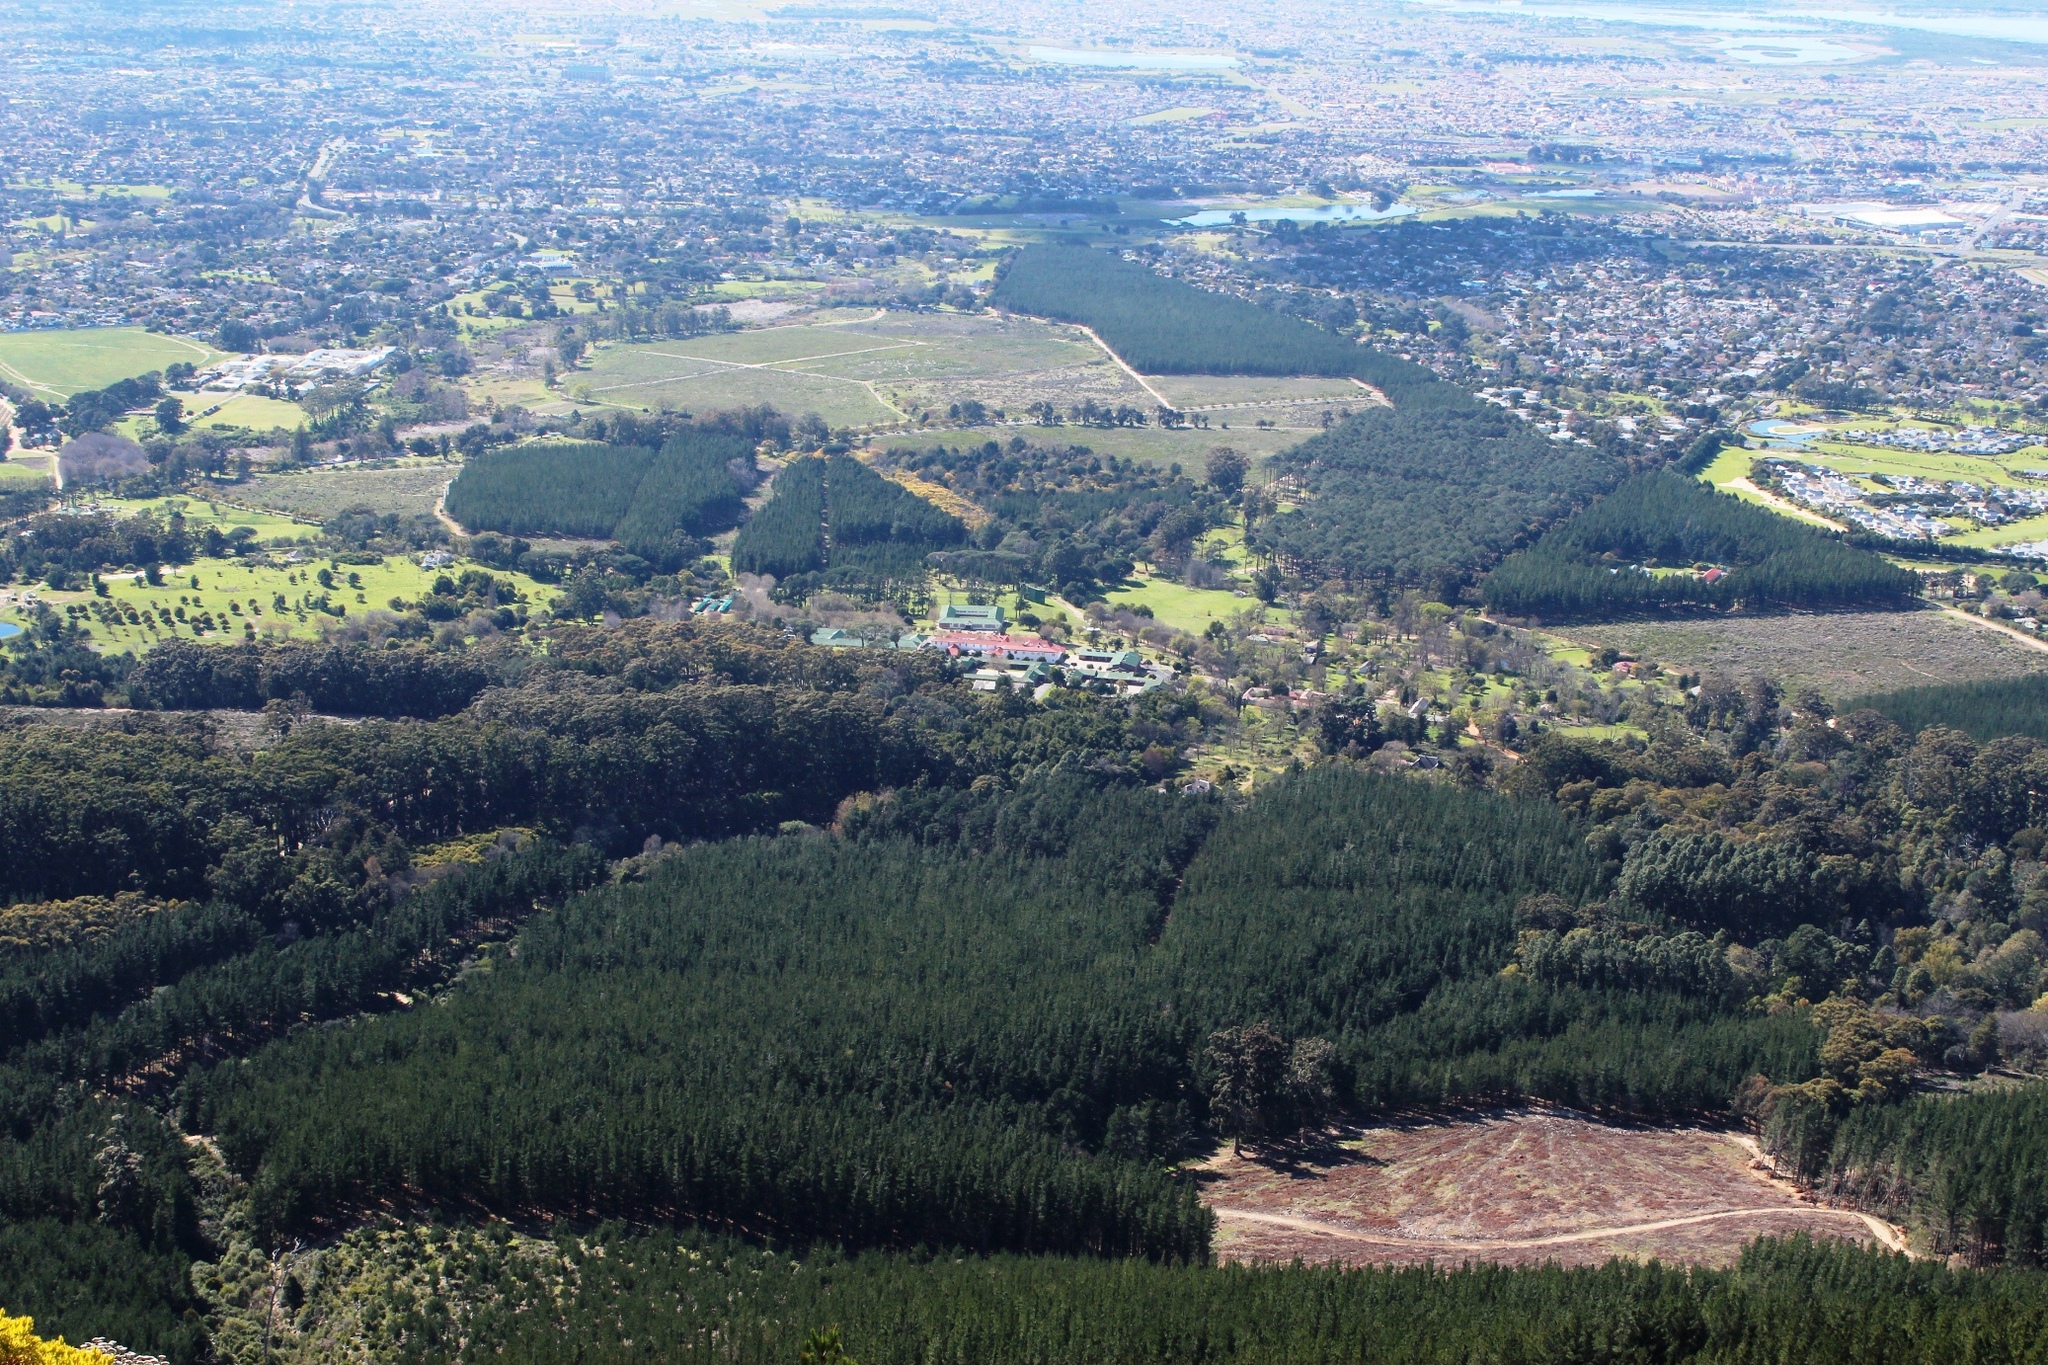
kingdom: Plantae
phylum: Tracheophyta
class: Pinopsida
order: Pinales
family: Pinaceae
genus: Pinus
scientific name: Pinus radiata
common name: Monterey pine
